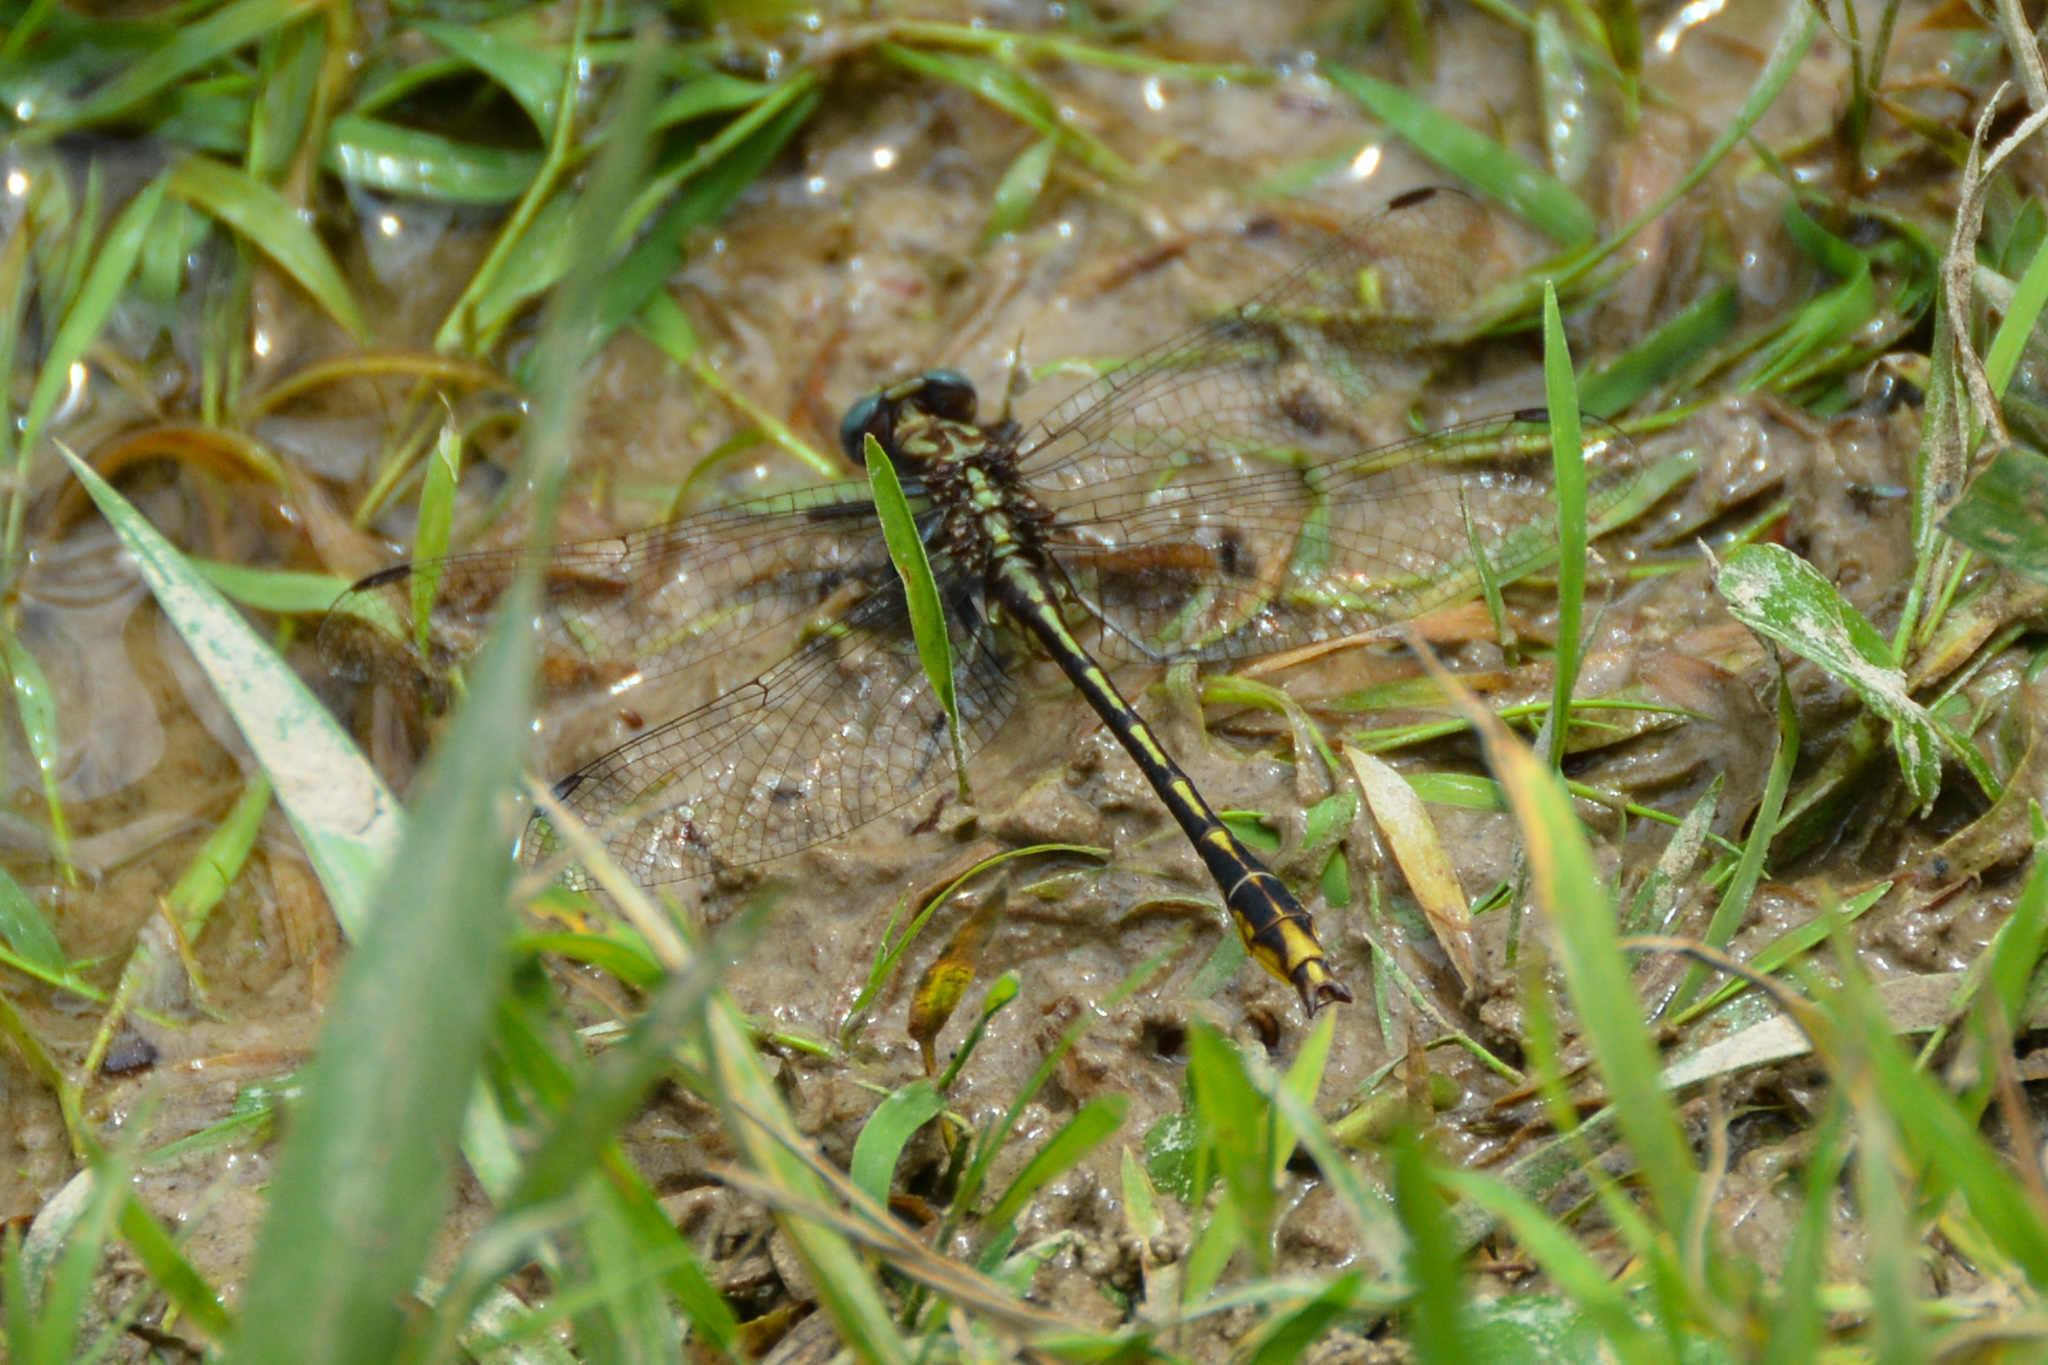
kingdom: Animalia
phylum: Arthropoda
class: Insecta
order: Odonata
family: Gomphidae
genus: Phanogomphus
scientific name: Phanogomphus exilis
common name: Lancet clubtail
